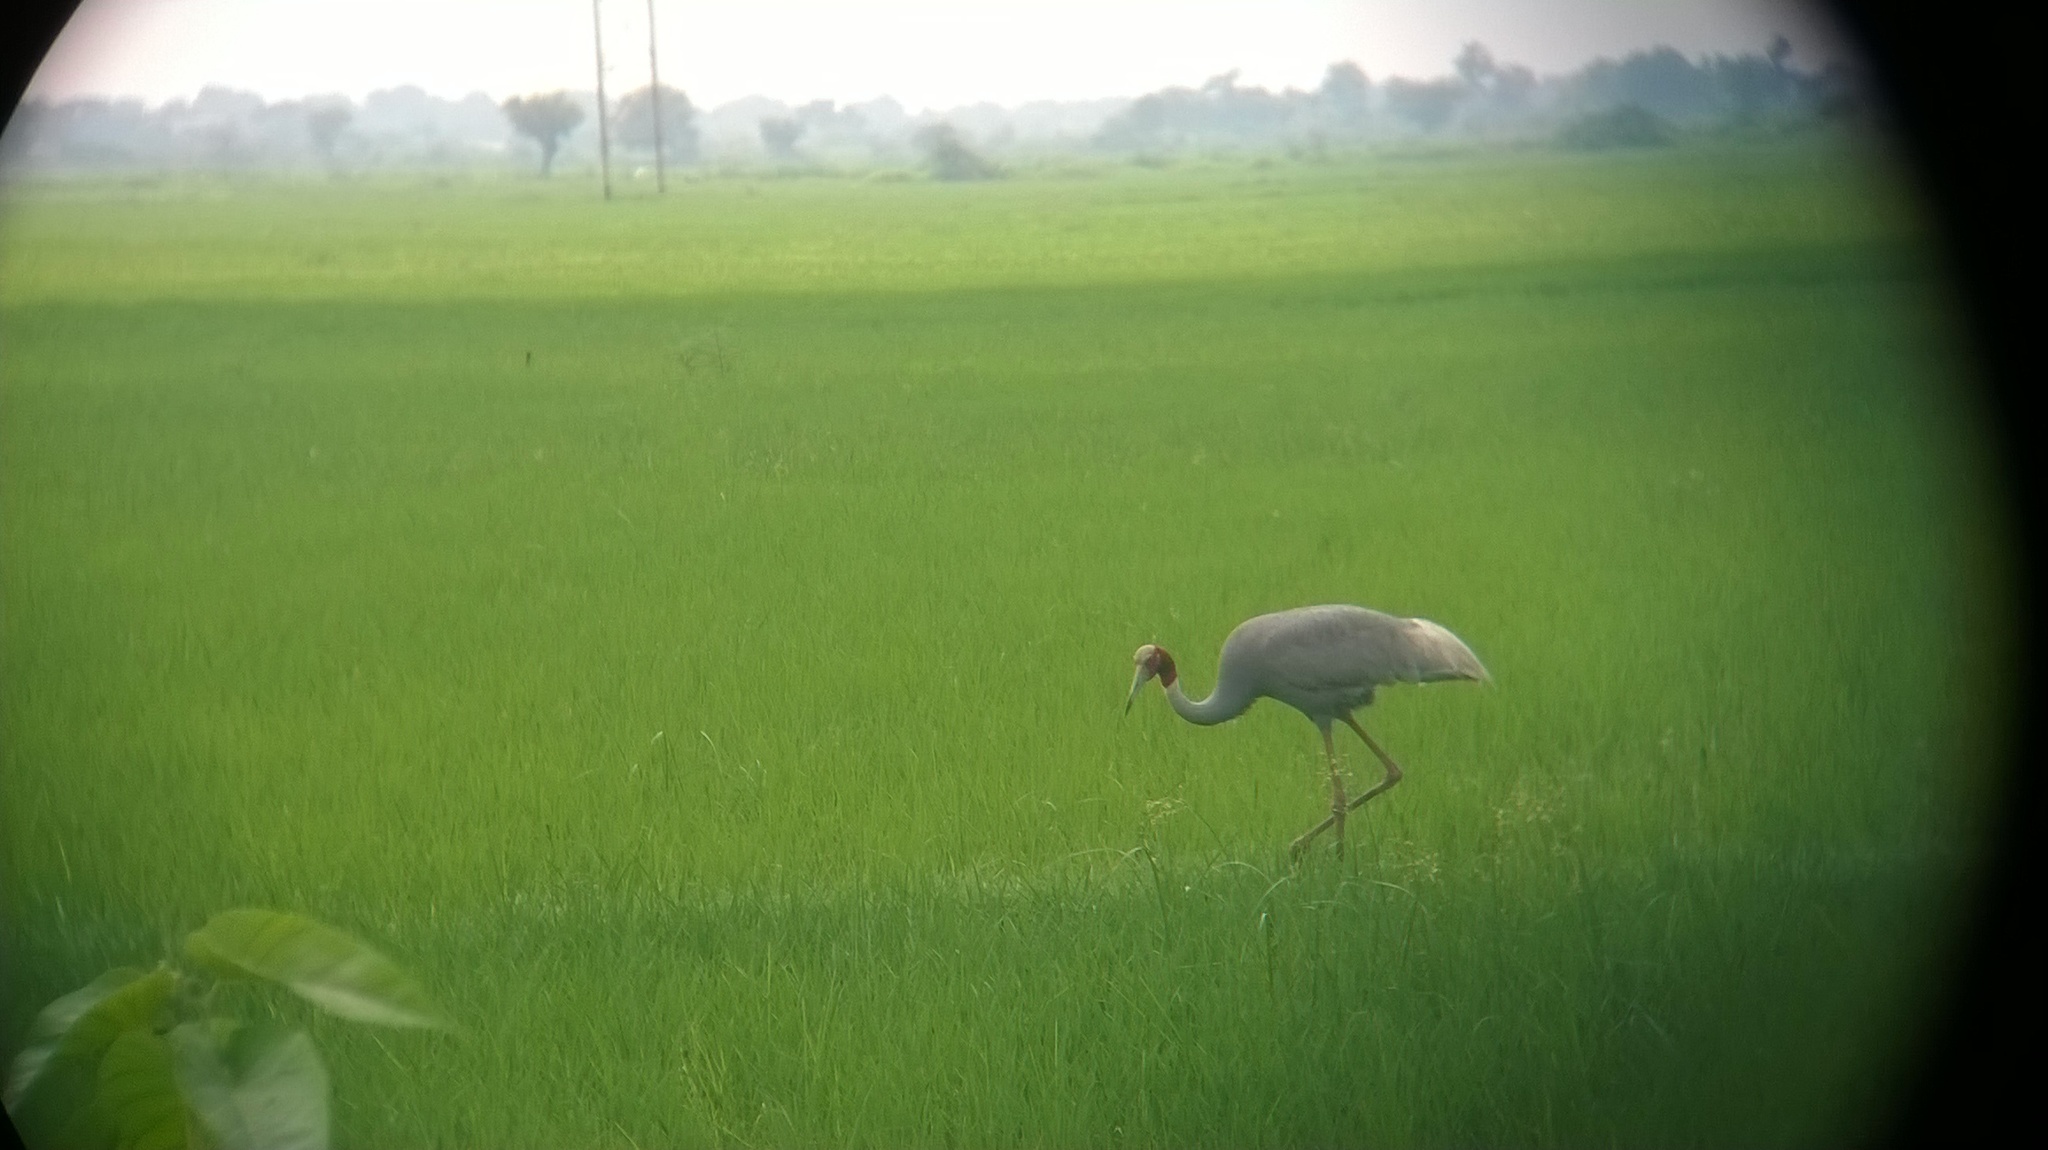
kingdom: Animalia
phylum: Chordata
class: Aves
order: Gruiformes
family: Gruidae
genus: Grus
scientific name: Grus antigone
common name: Sarus crane
